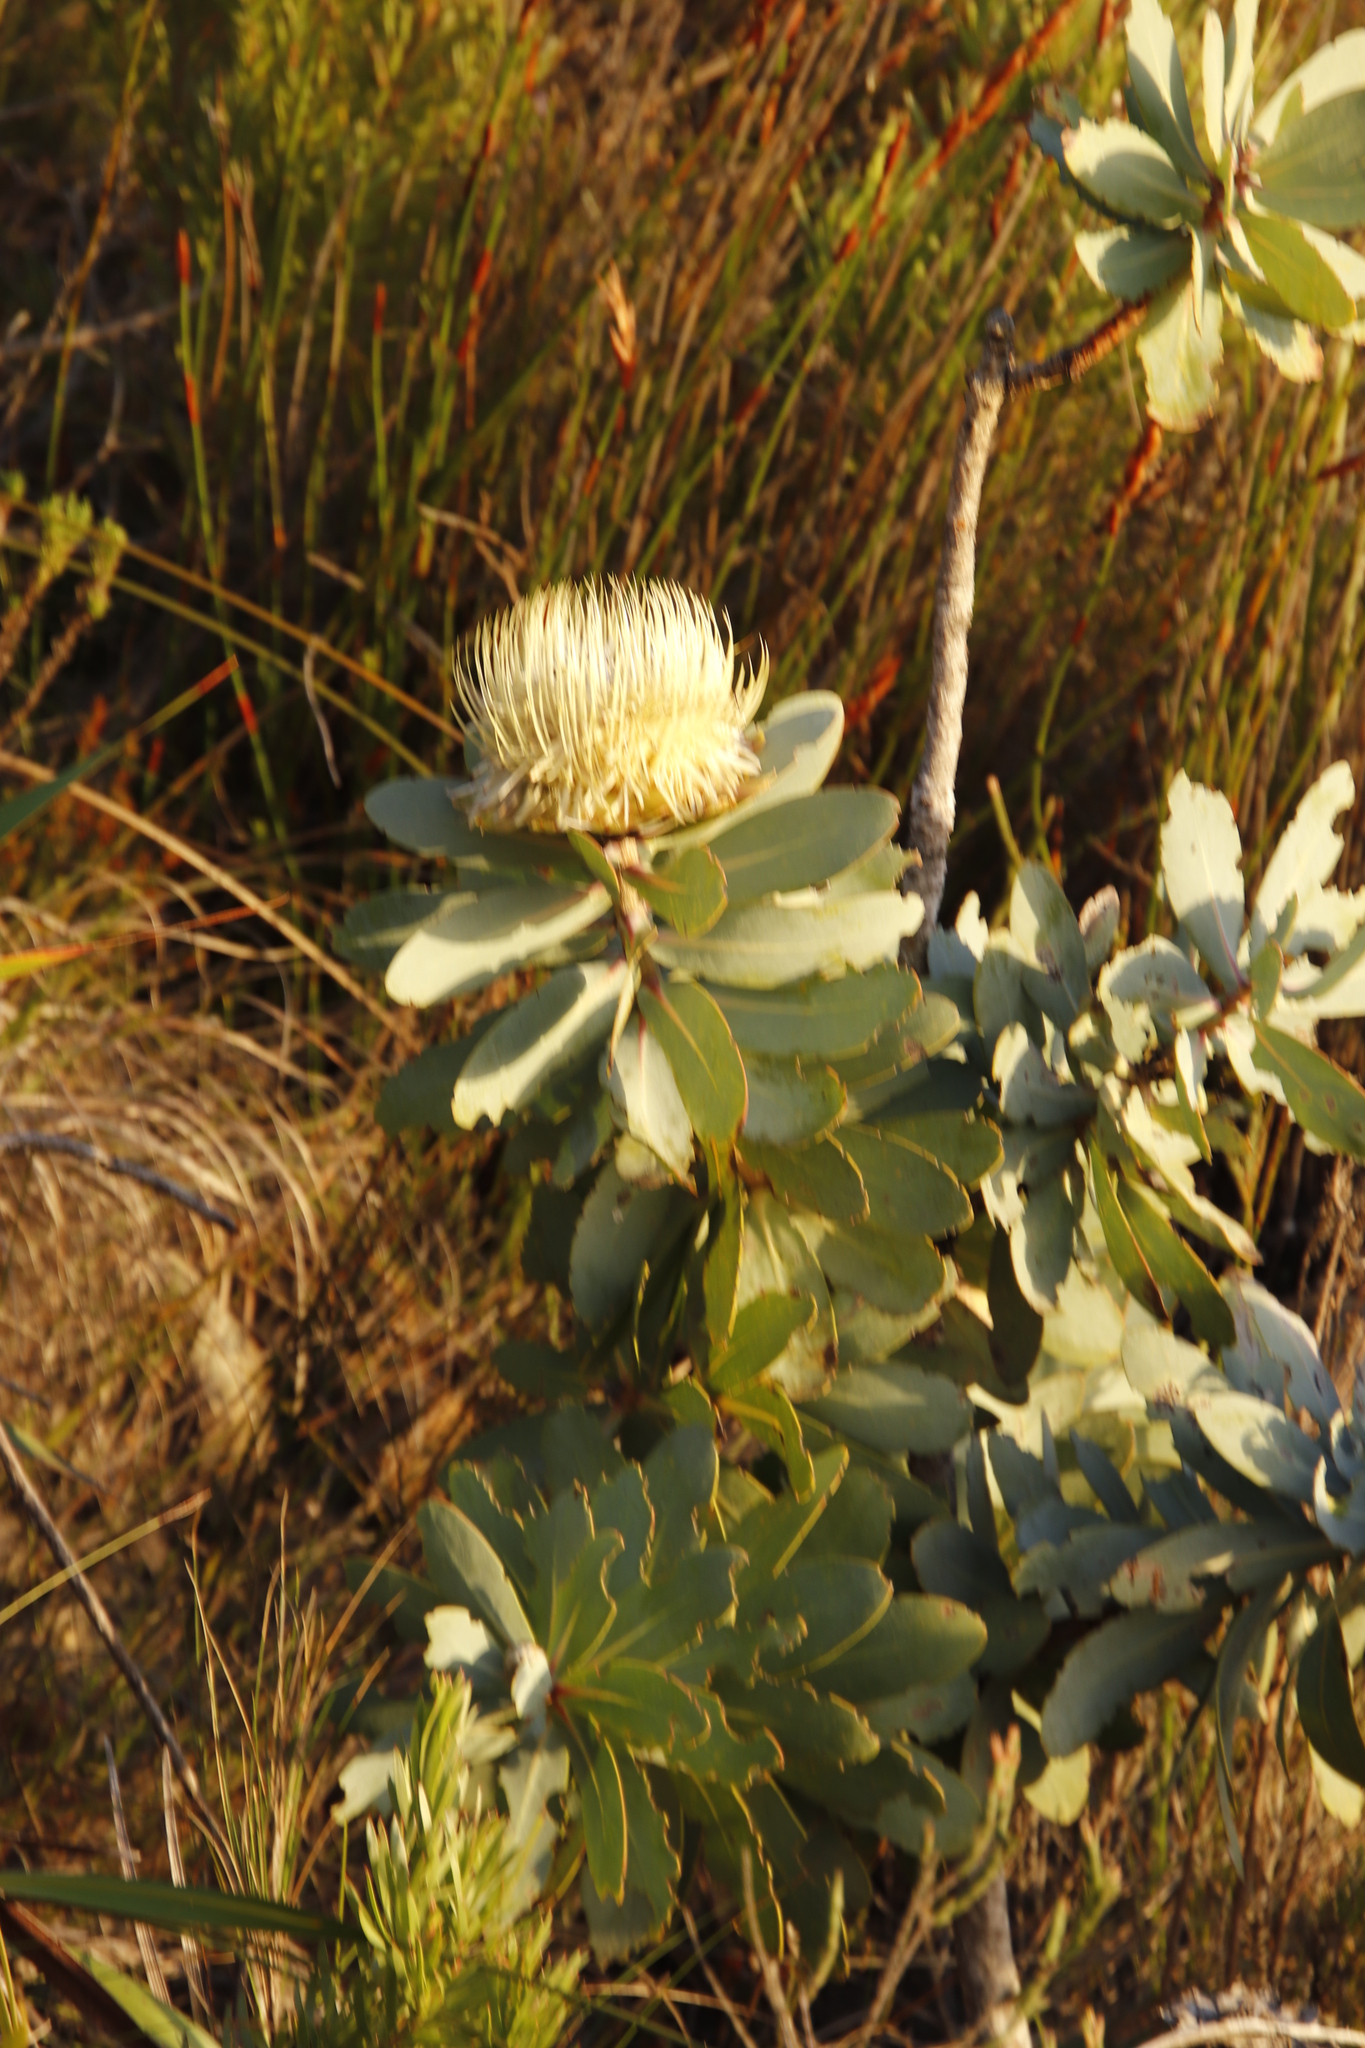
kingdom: Plantae
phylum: Tracheophyta
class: Magnoliopsida
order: Proteales
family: Proteaceae
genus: Protea
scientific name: Protea nitida
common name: Tree protea
